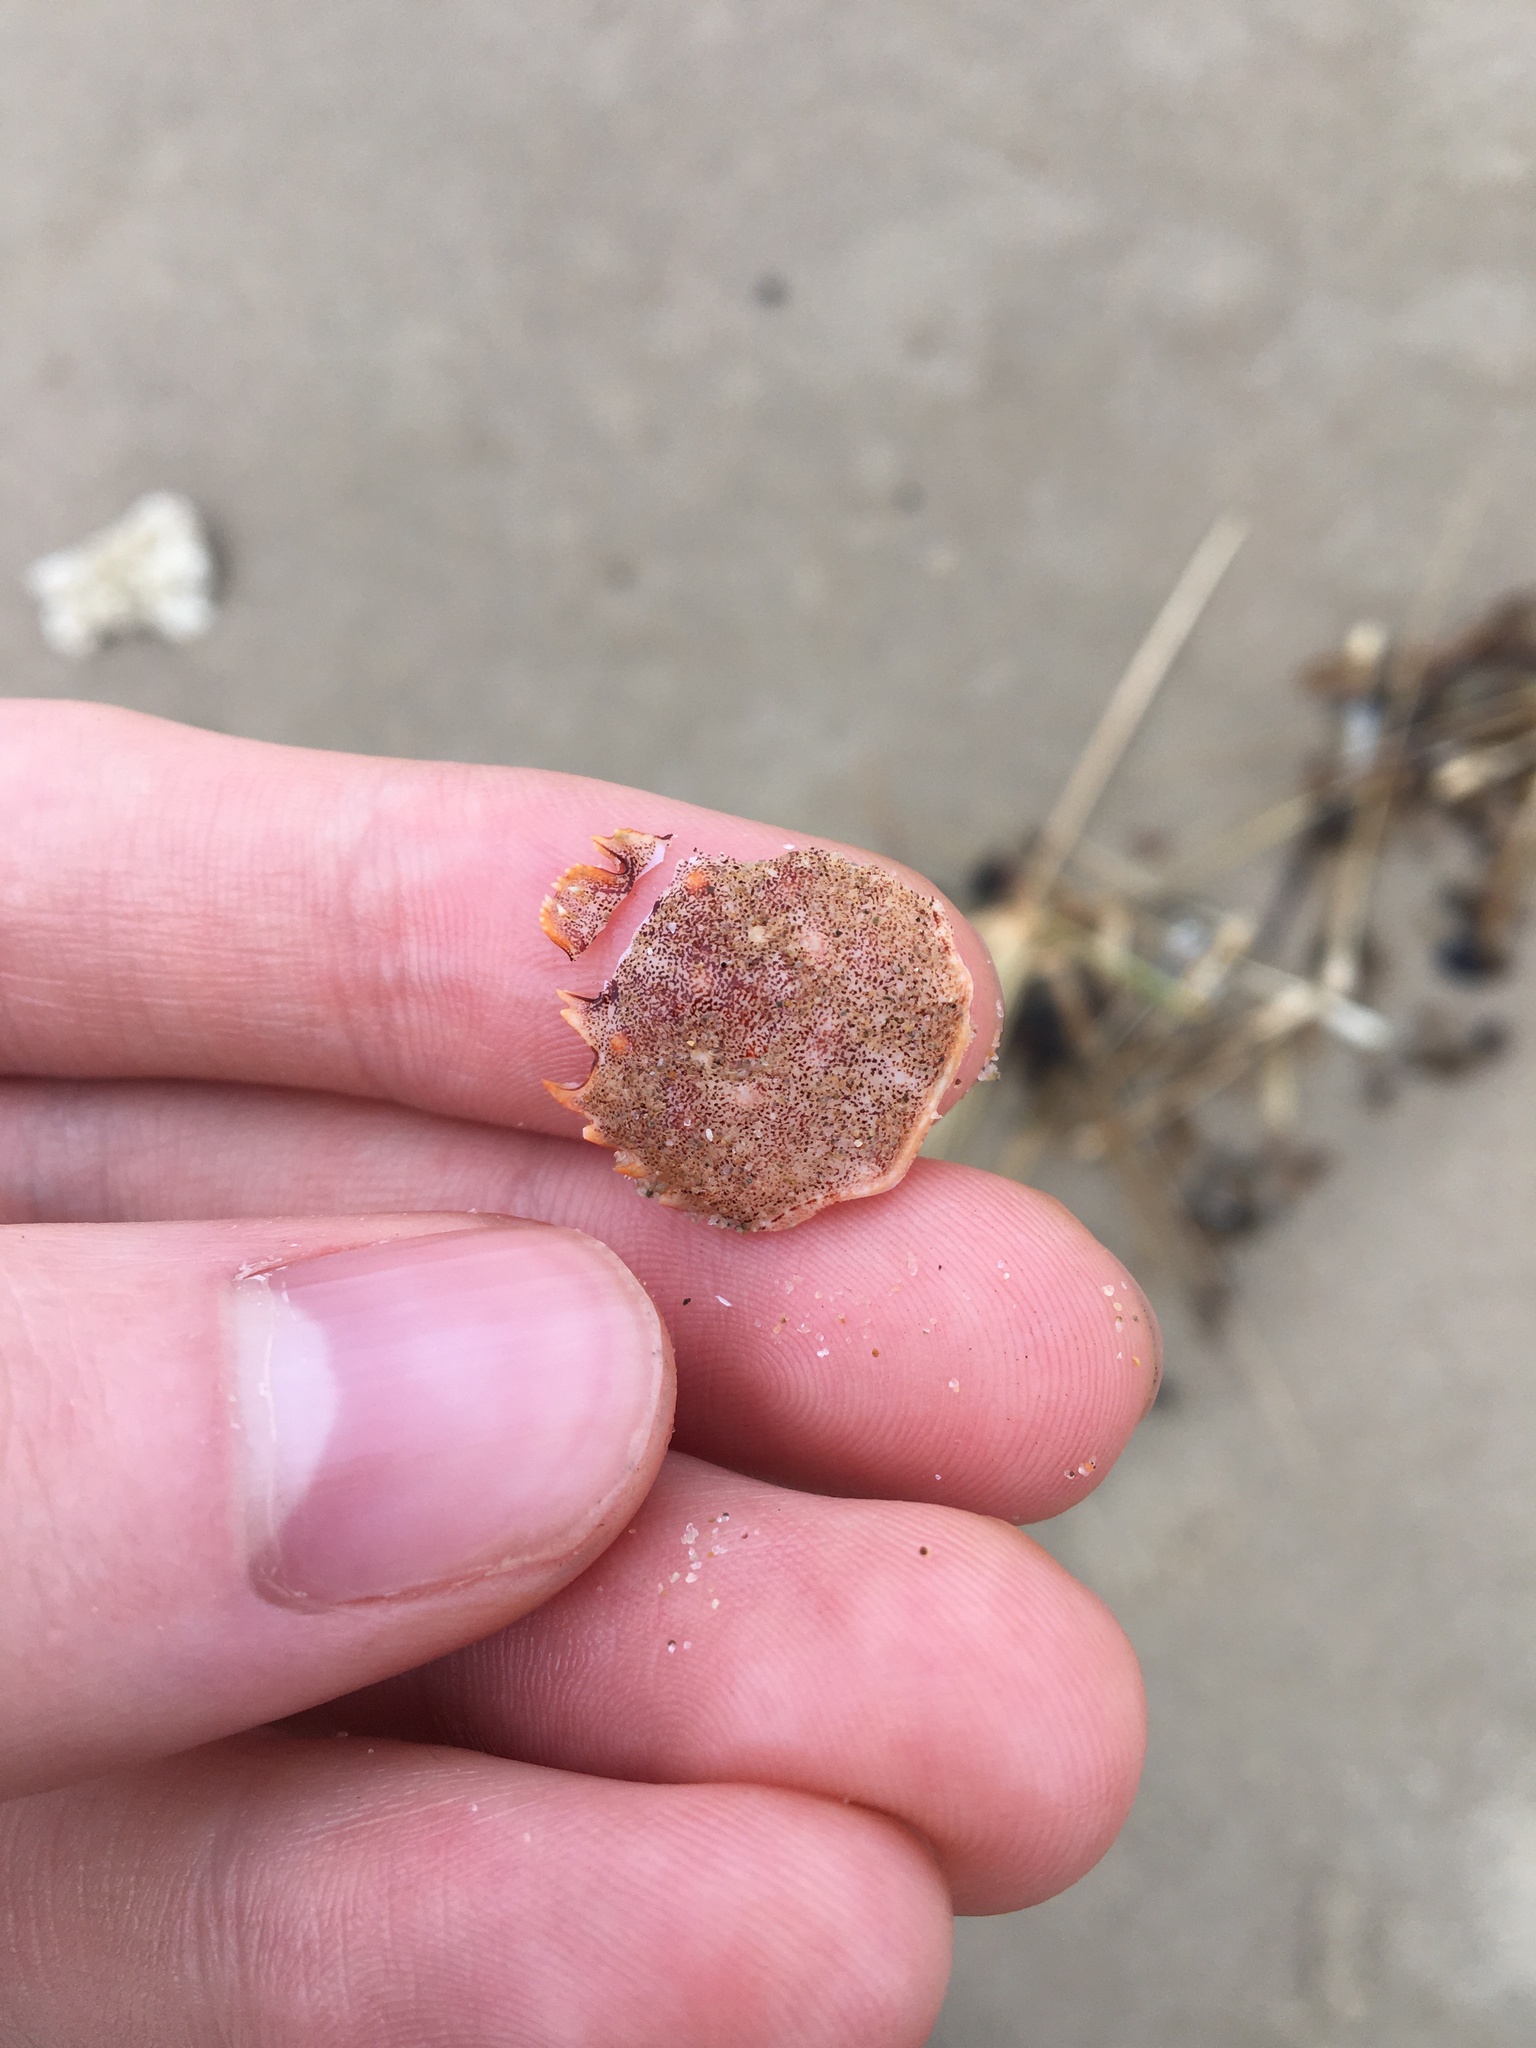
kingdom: Animalia
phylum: Arthropoda
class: Malacostraca
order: Decapoda
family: Plagusiidae
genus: Guinusia
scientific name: Guinusia chabrus
